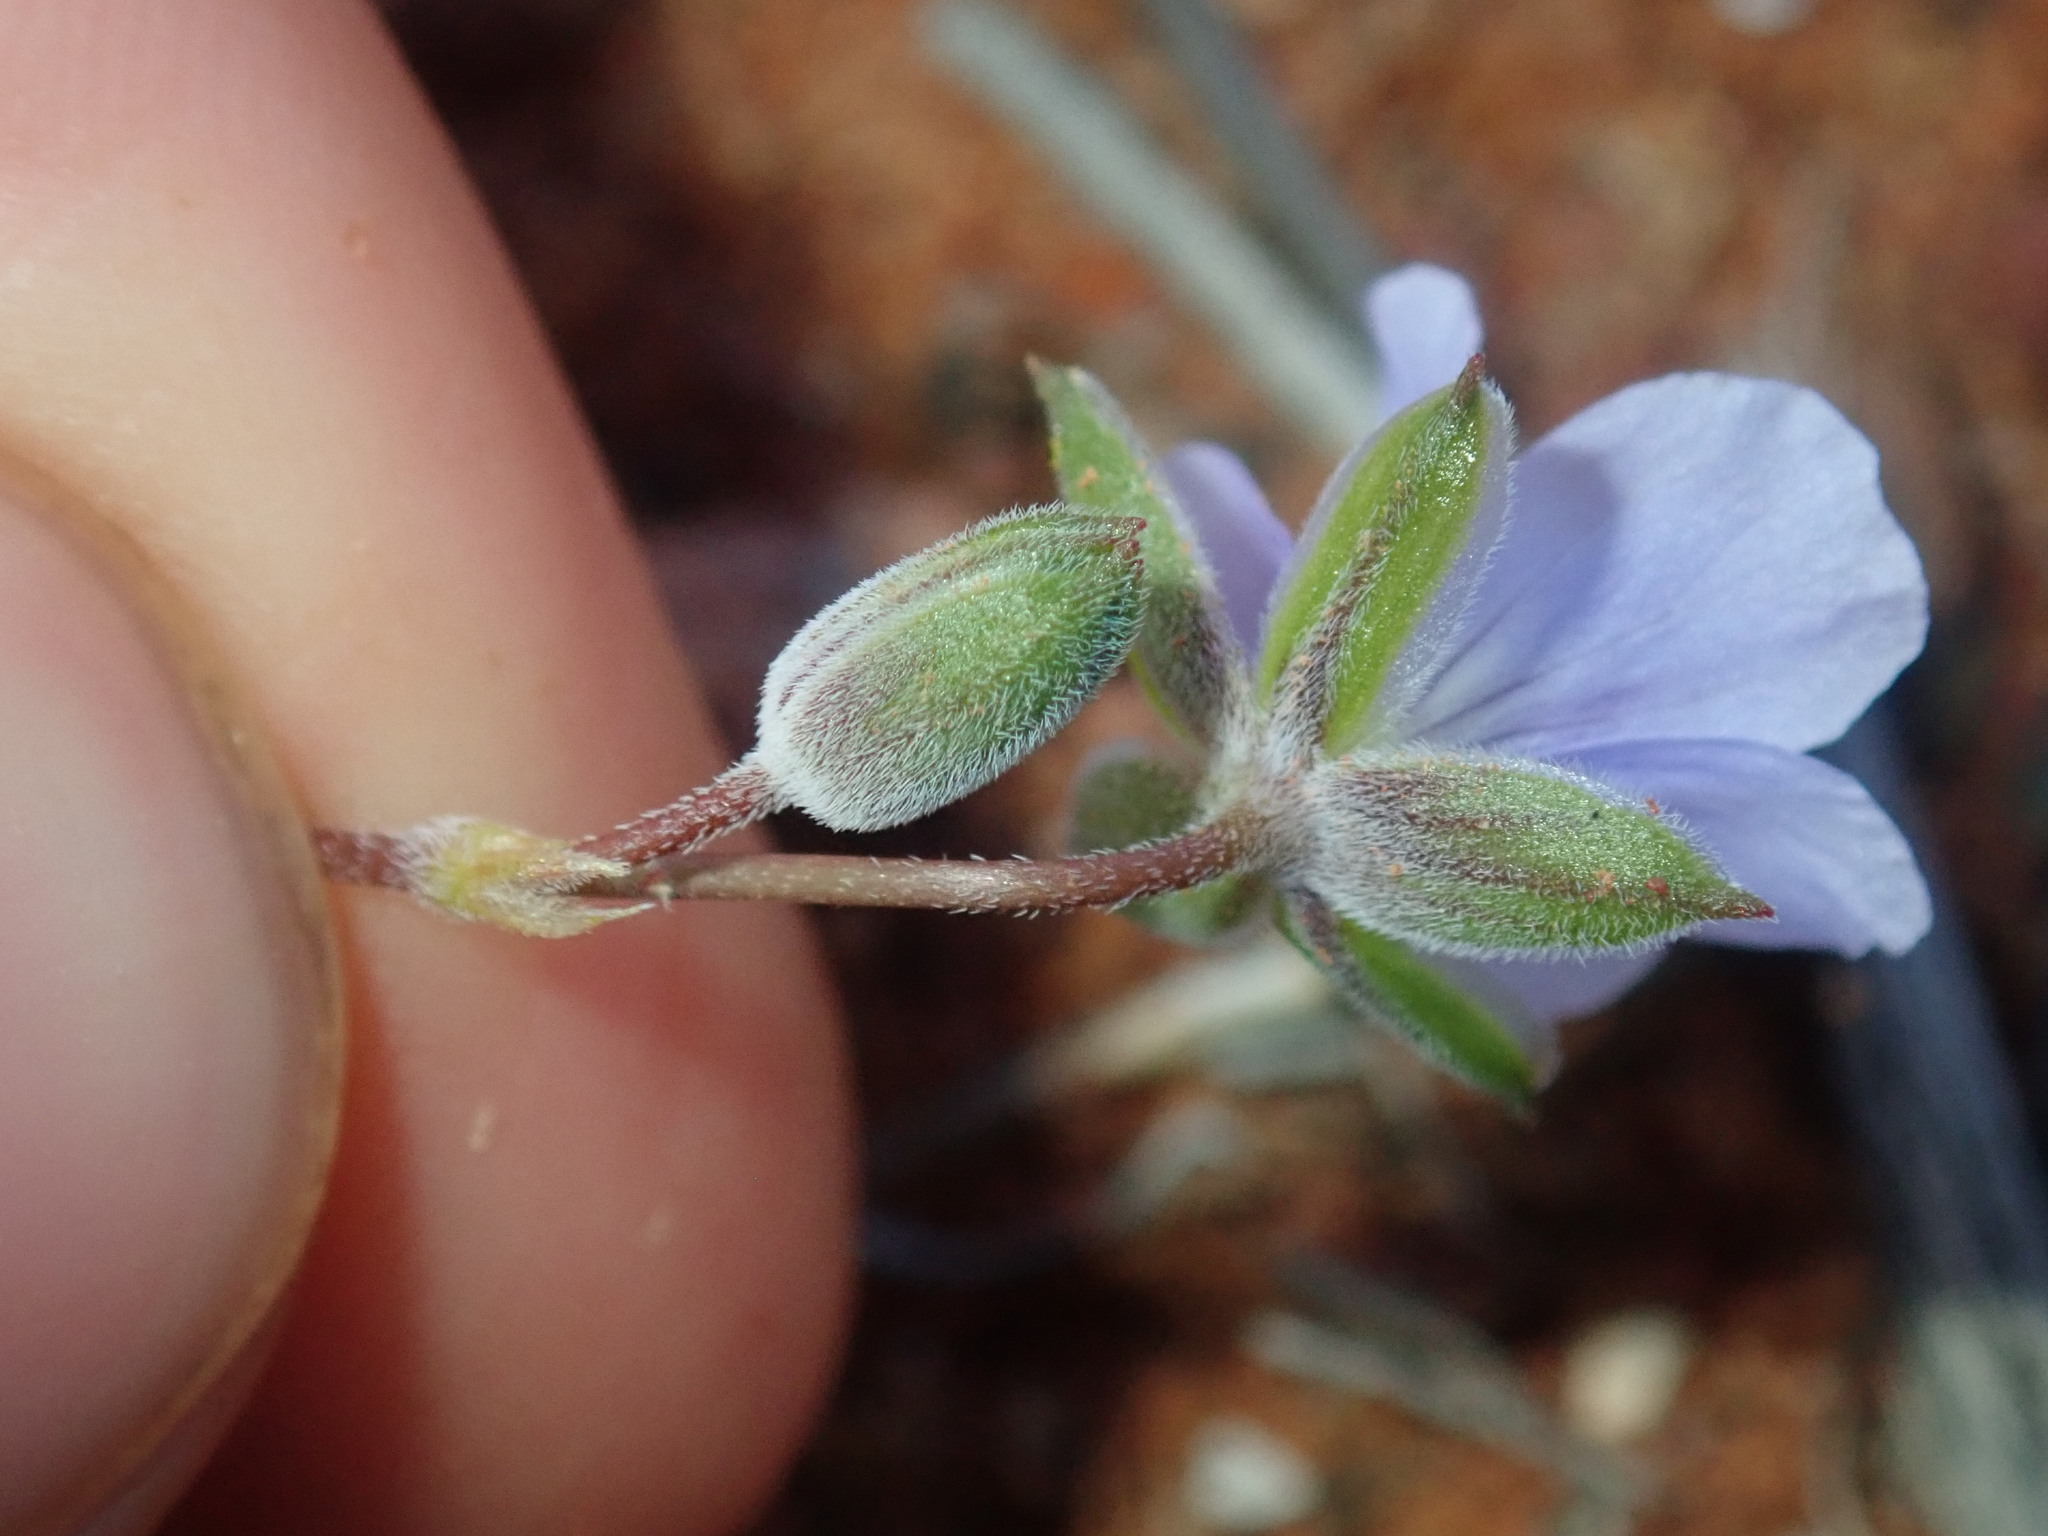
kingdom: Plantae
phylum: Tracheophyta
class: Magnoliopsida
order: Geraniales
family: Geraniaceae
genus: Erodium
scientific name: Erodium cygnorum
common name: Western stork's-bill
